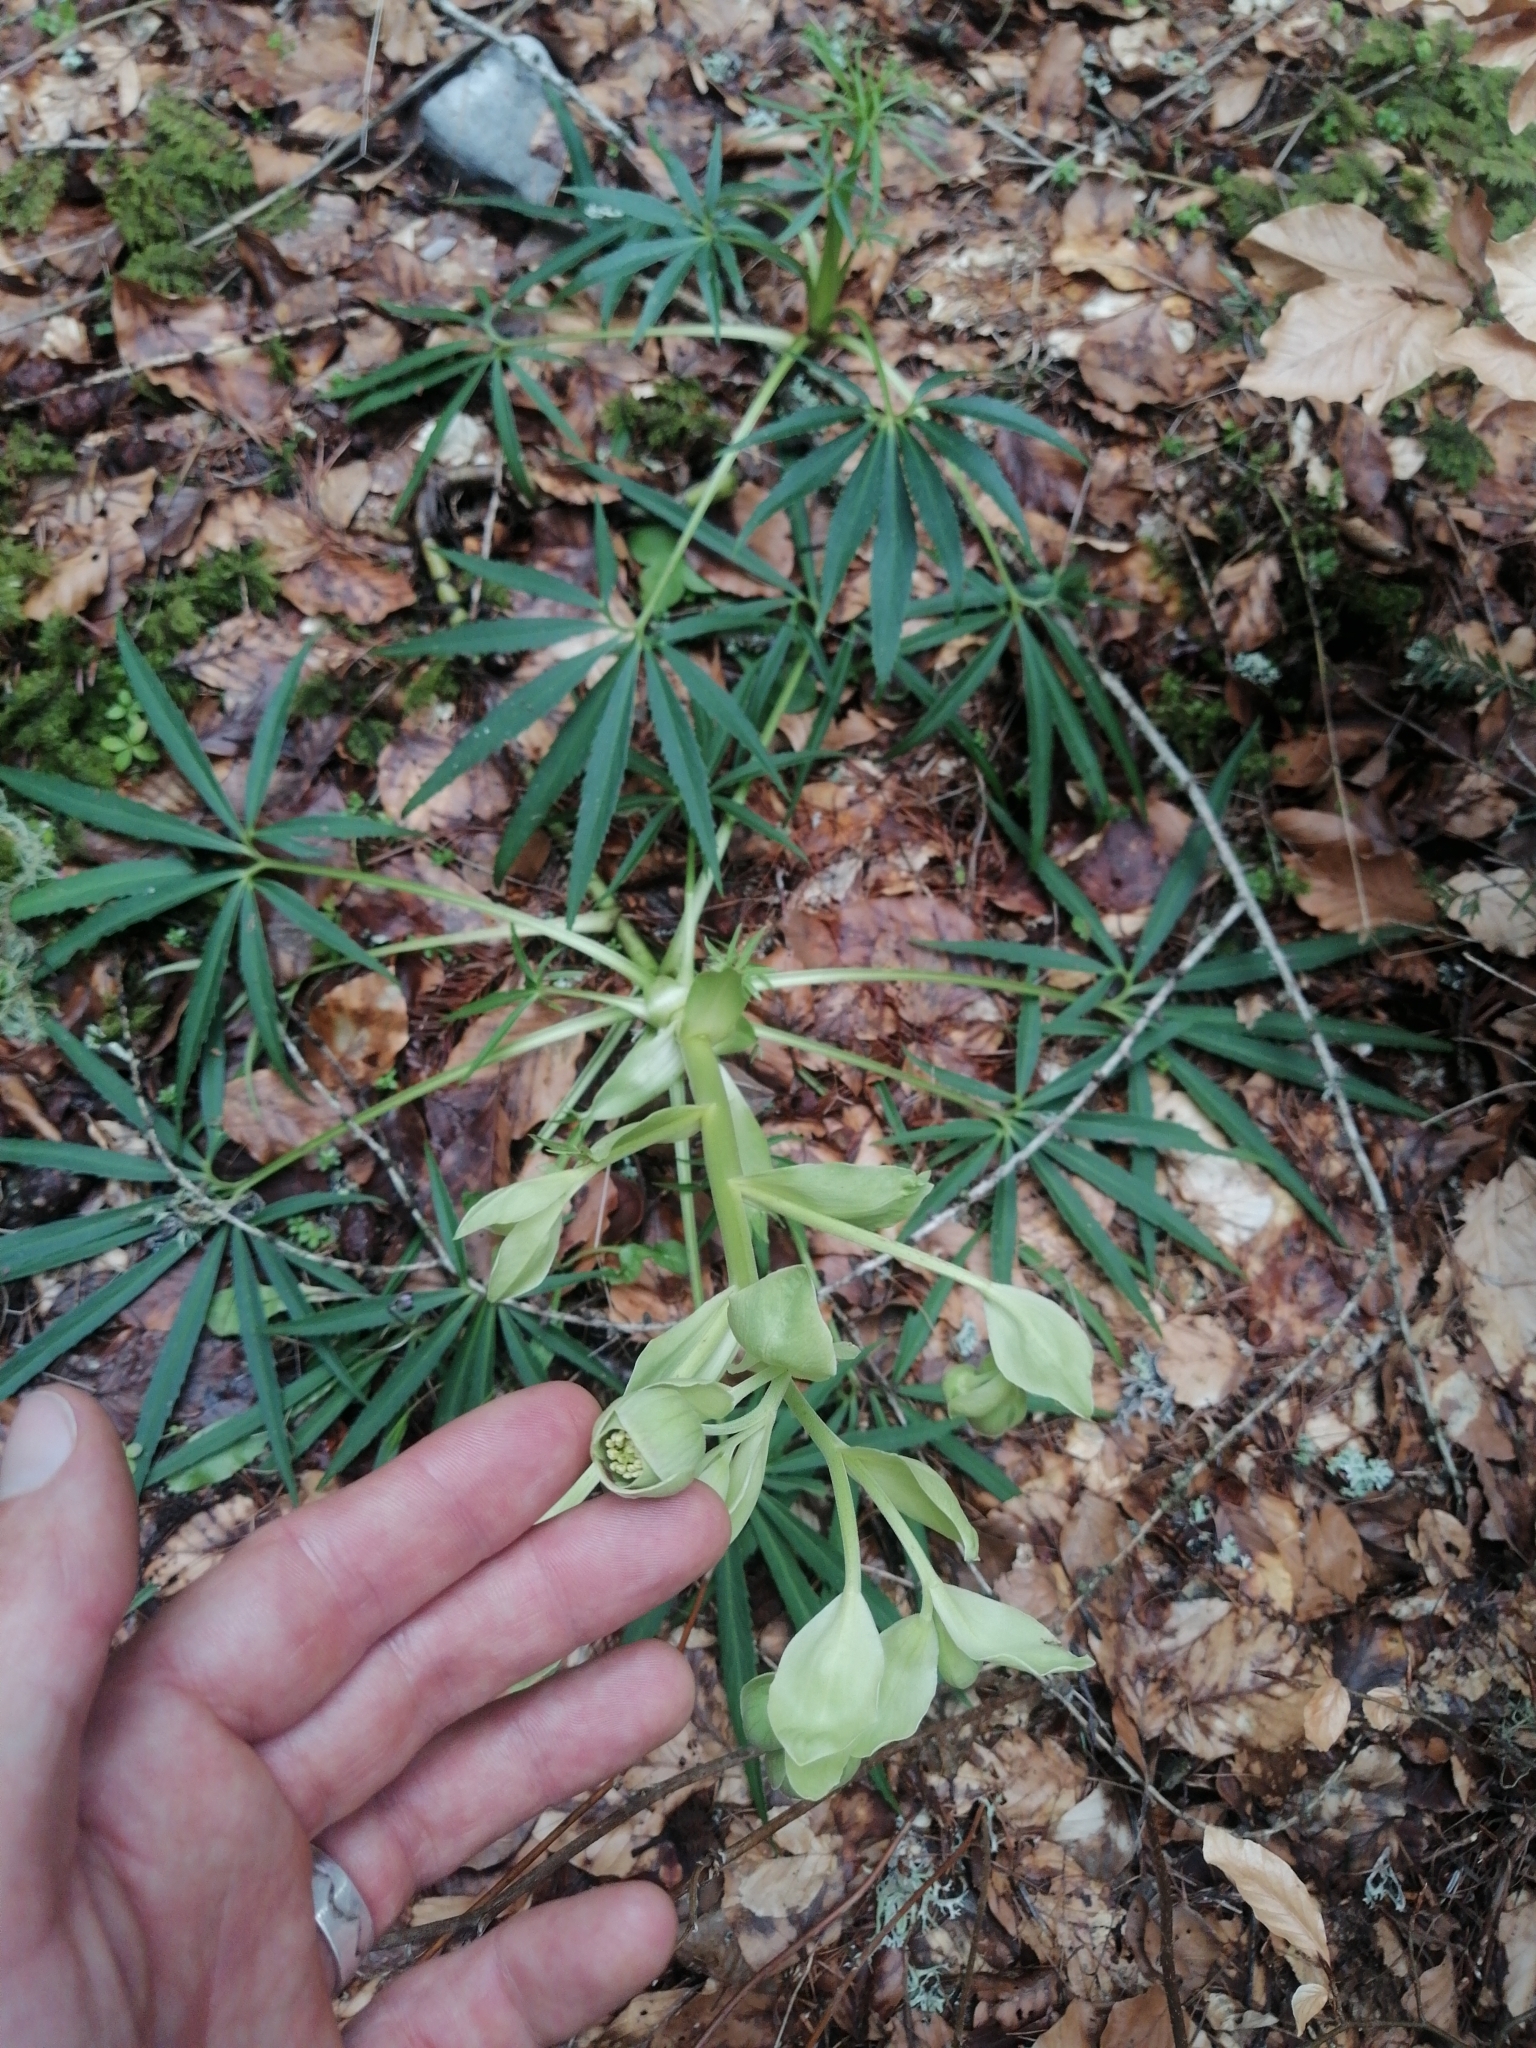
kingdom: Plantae
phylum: Tracheophyta
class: Magnoliopsida
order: Ranunculales
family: Ranunculaceae
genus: Helleborus
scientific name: Helleborus foetidus
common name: Stinking hellebore
